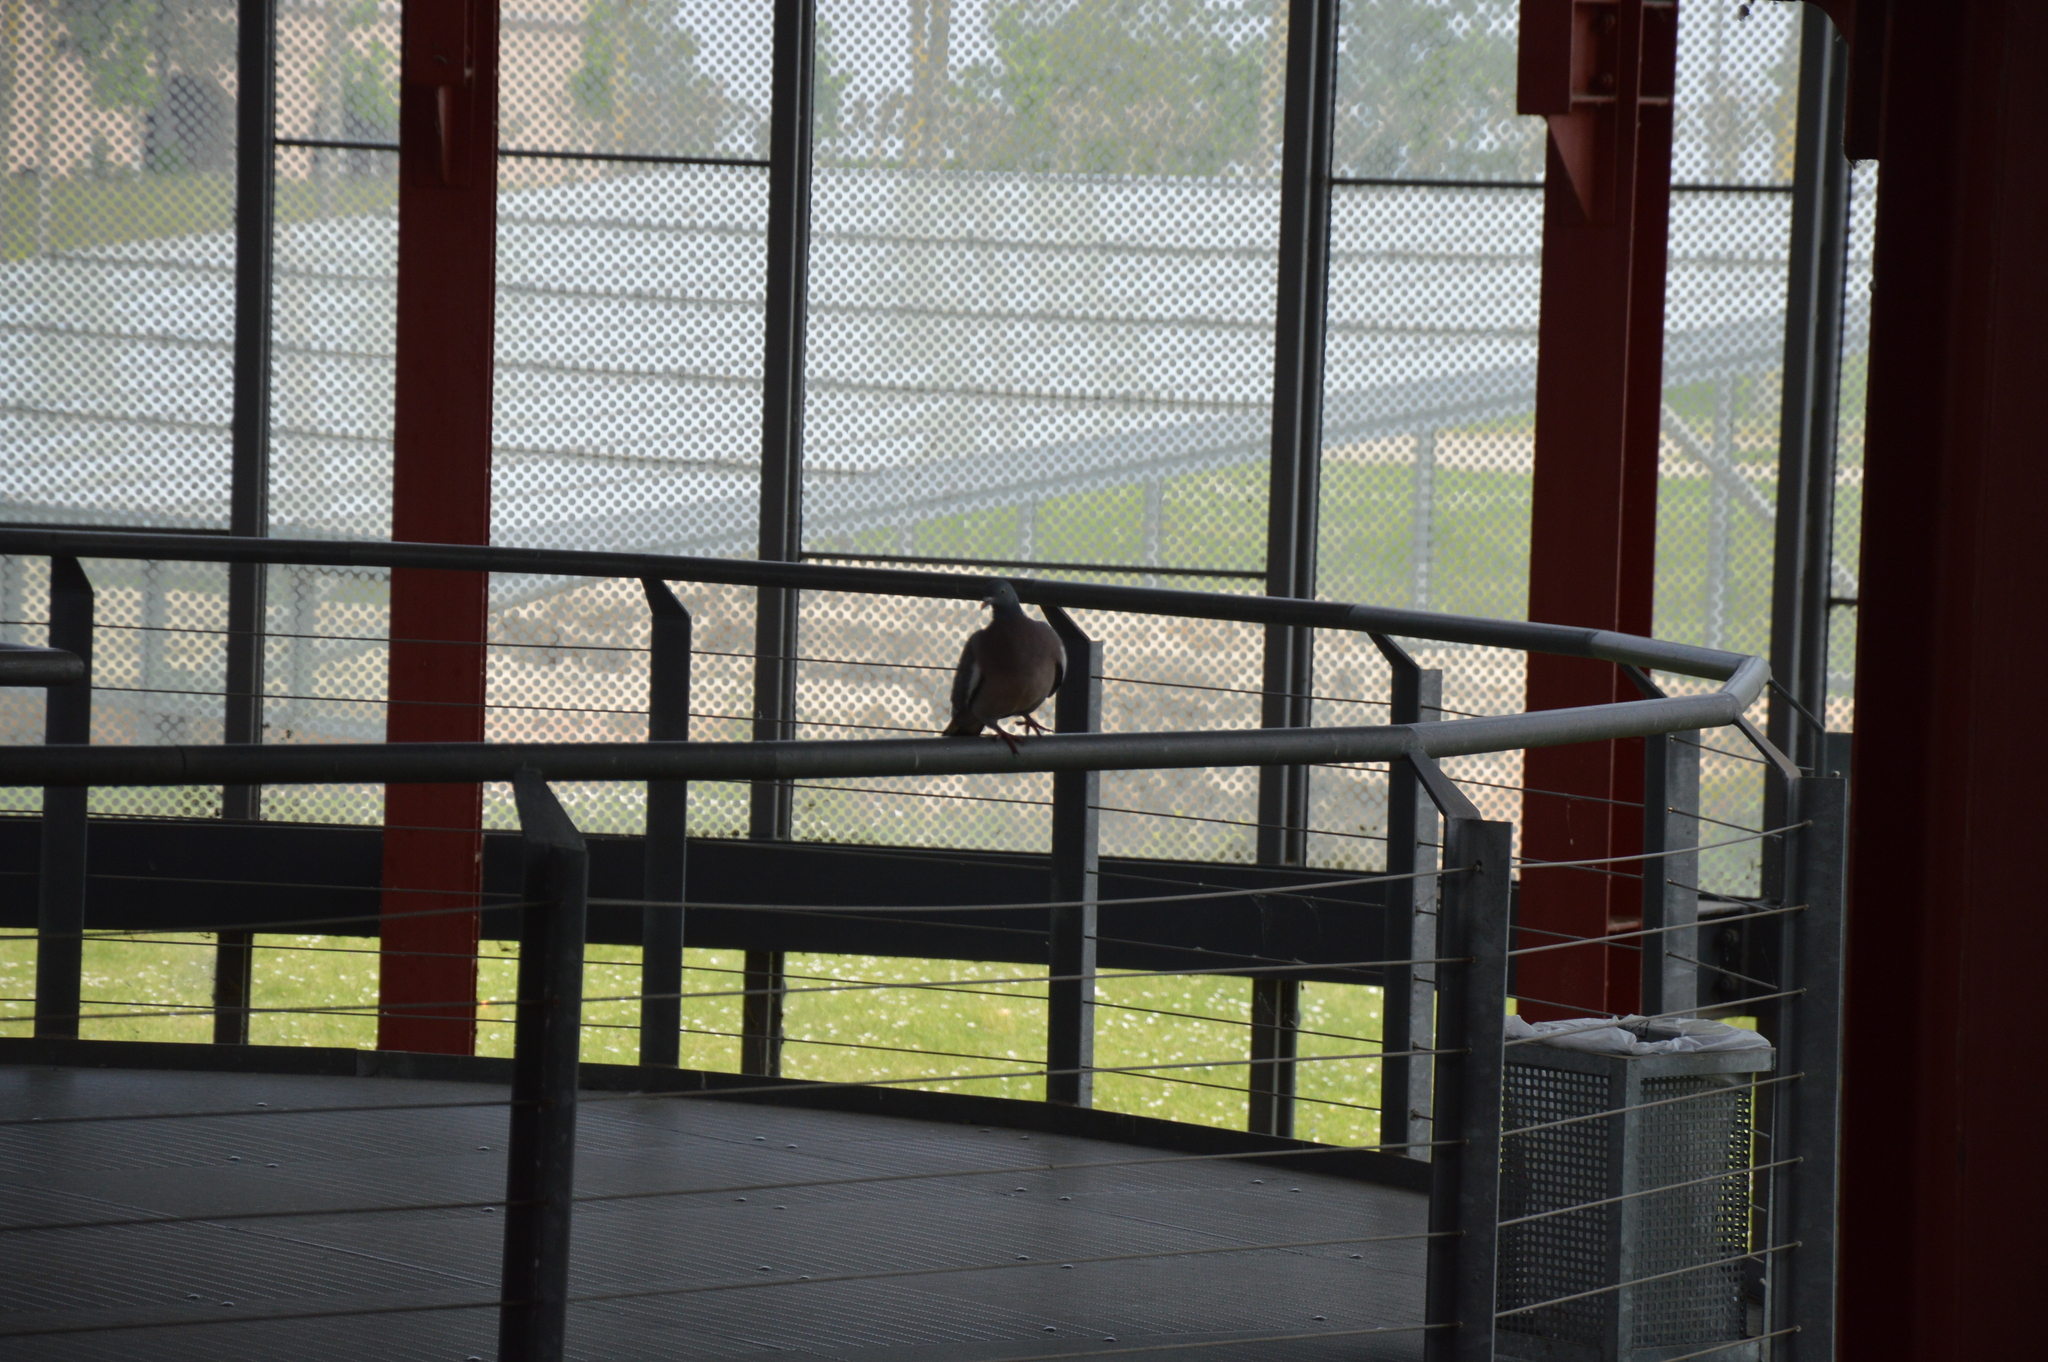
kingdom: Animalia
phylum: Chordata
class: Aves
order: Columbiformes
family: Columbidae
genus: Columba
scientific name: Columba palumbus
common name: Common wood pigeon
